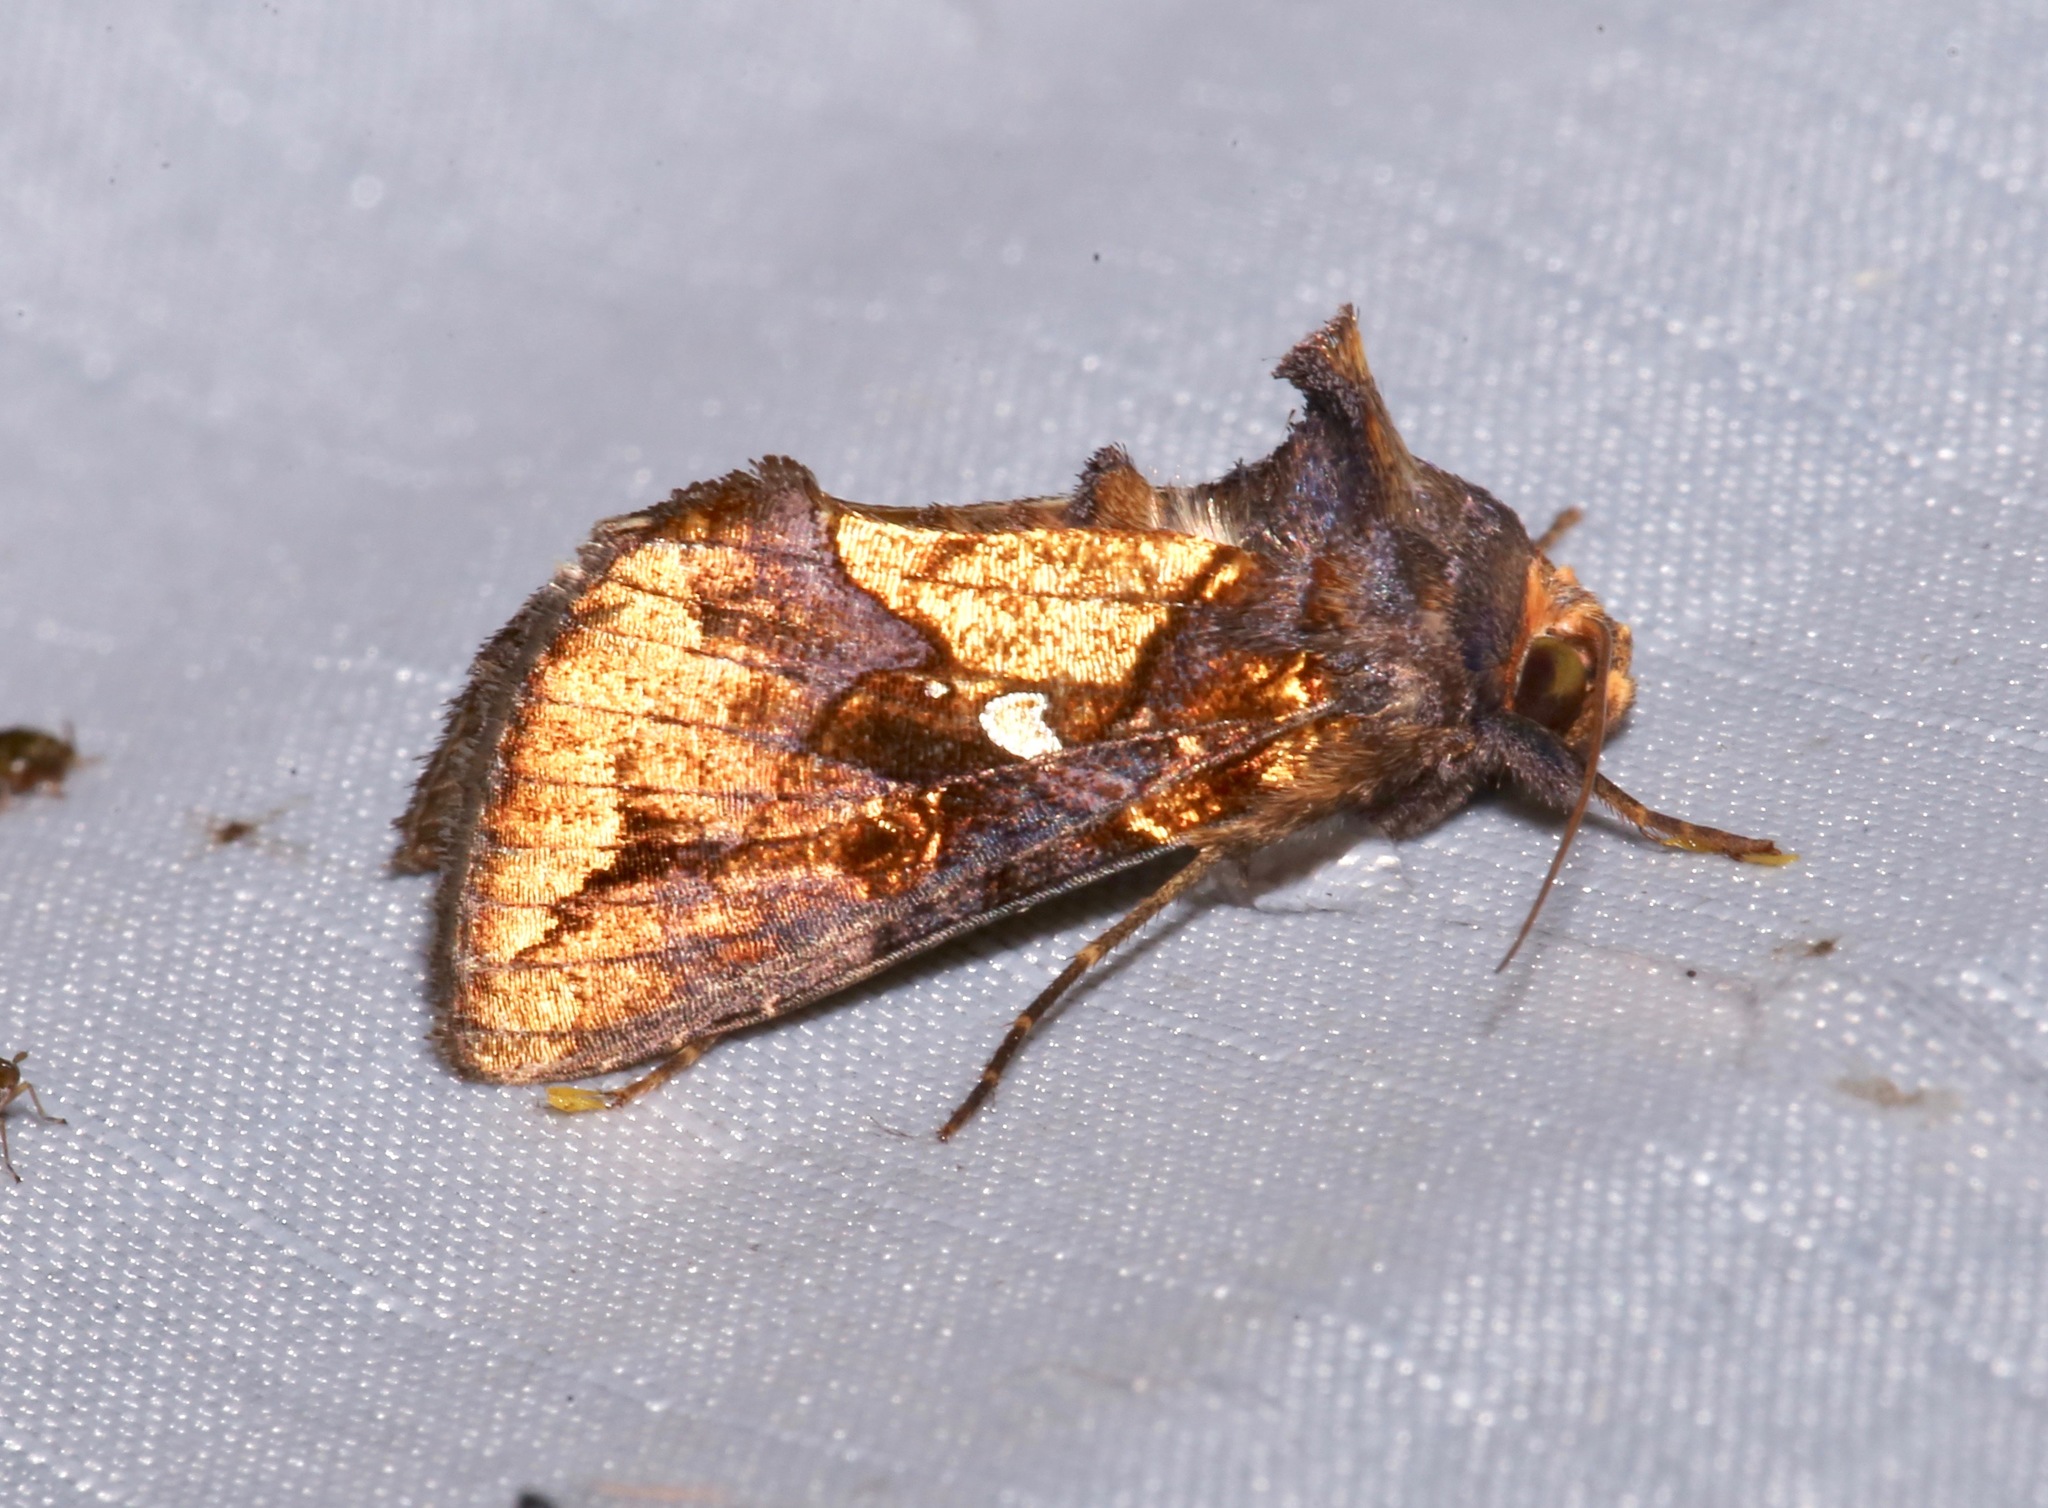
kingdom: Animalia
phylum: Arthropoda
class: Insecta
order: Lepidoptera
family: Noctuidae
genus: Argyrogramma
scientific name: Argyrogramma verruca
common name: Golden looper moth
